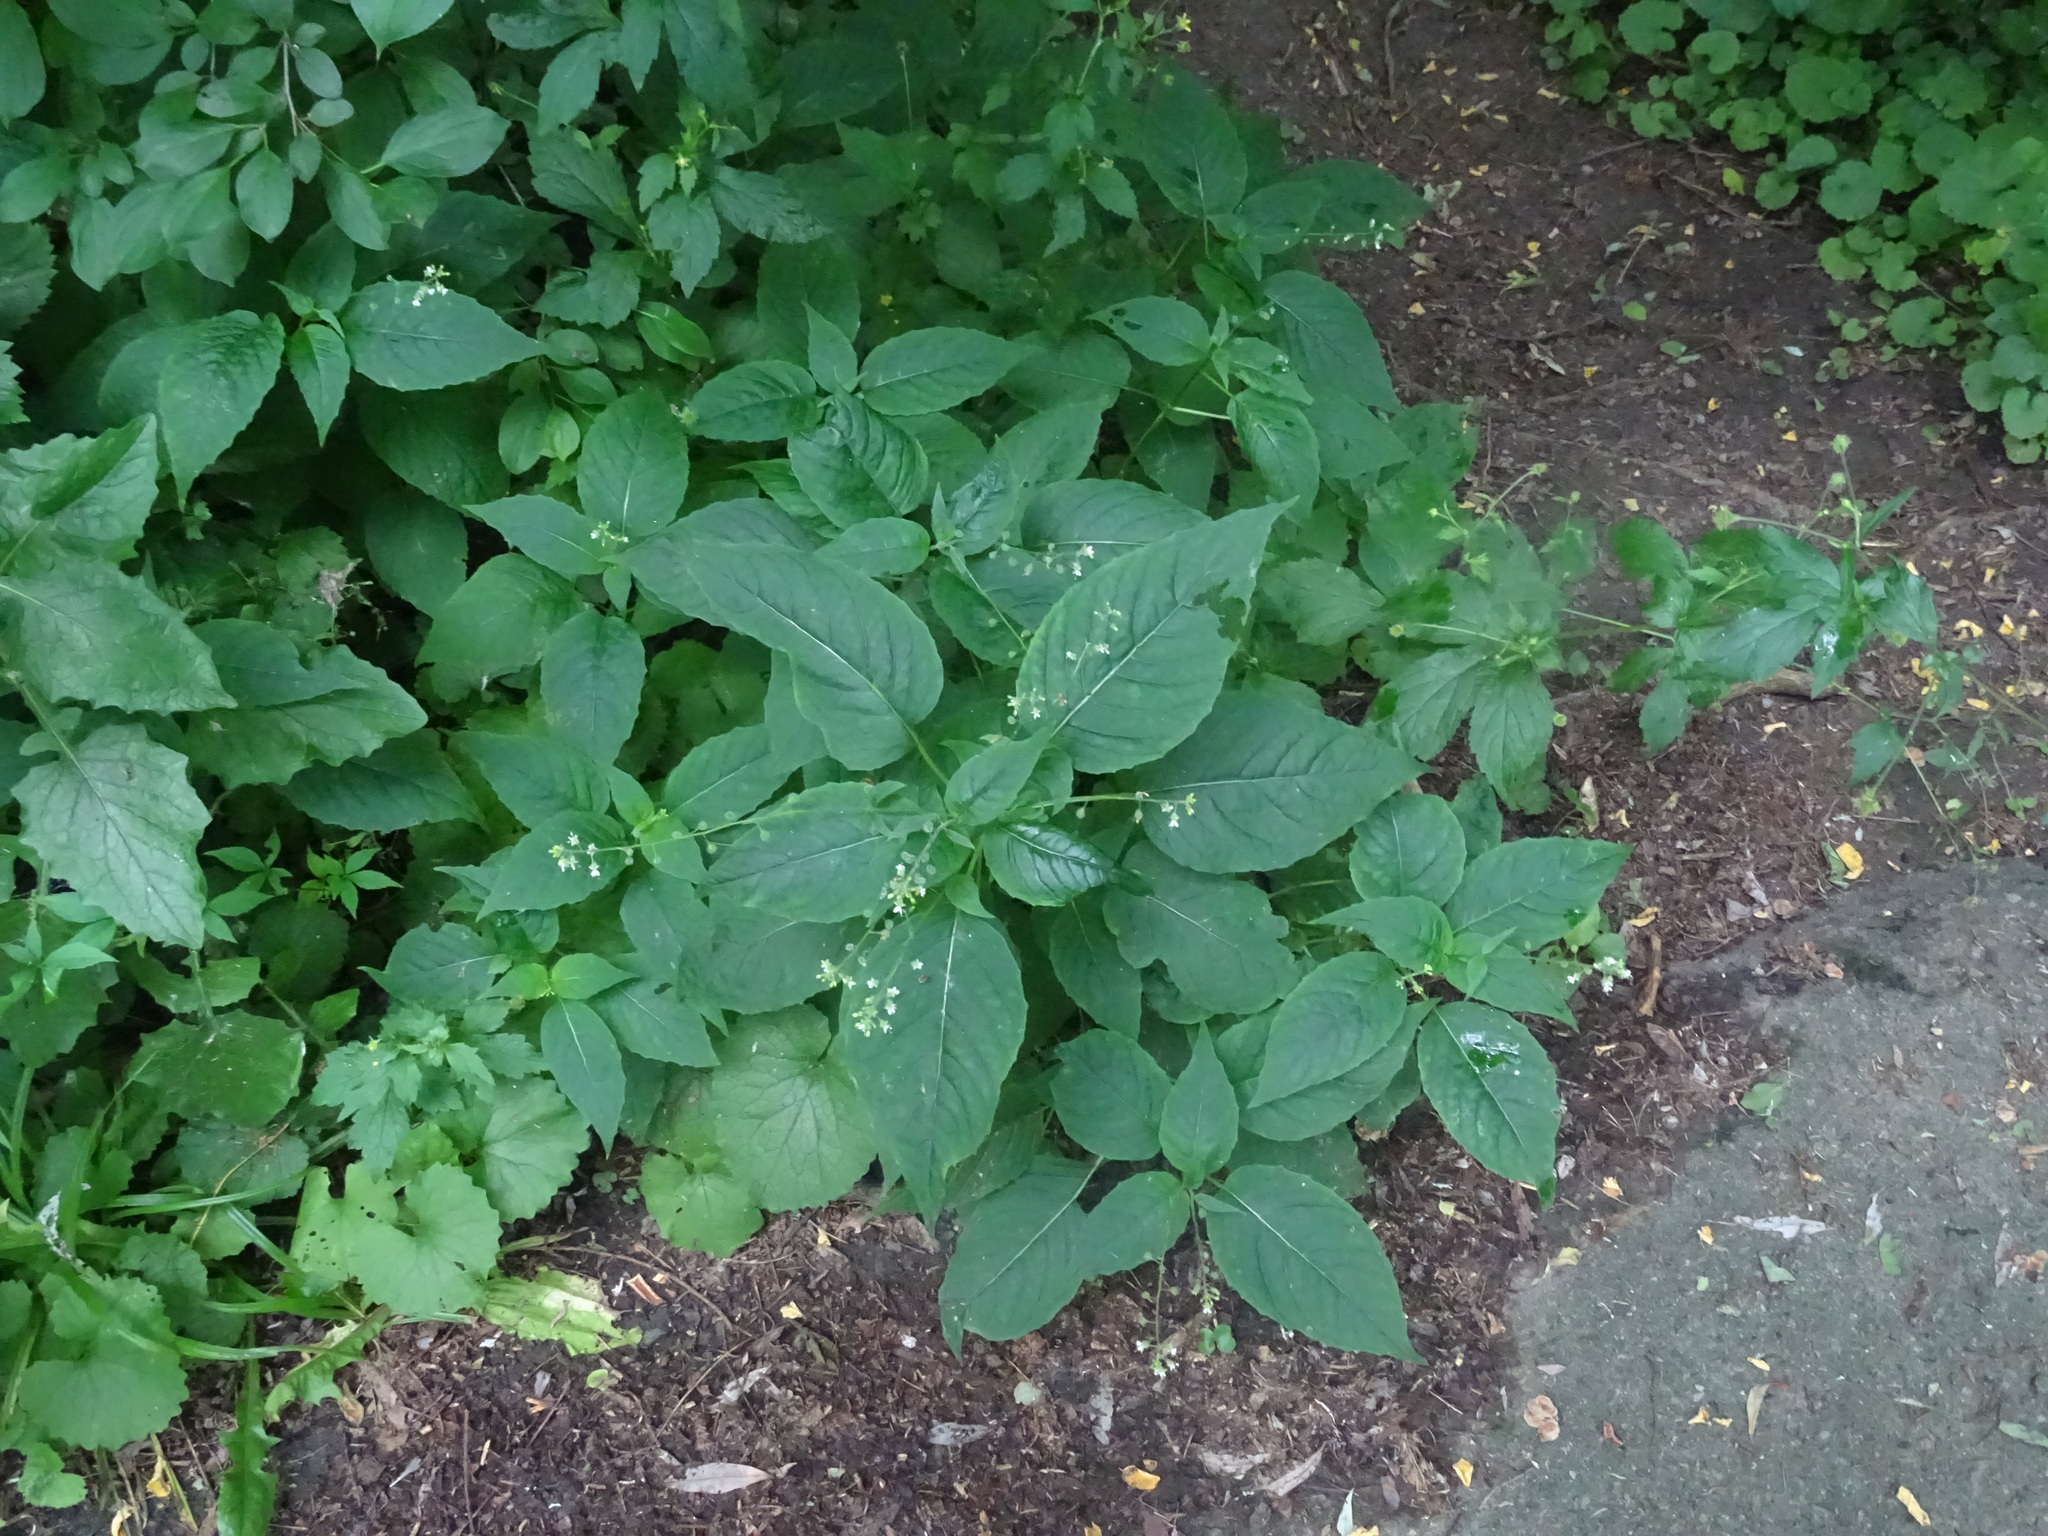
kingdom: Plantae
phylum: Tracheophyta
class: Magnoliopsida
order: Myrtales
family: Onagraceae
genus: Circaea
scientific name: Circaea canadensis
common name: Broad-leaved enchanter's nightshade
